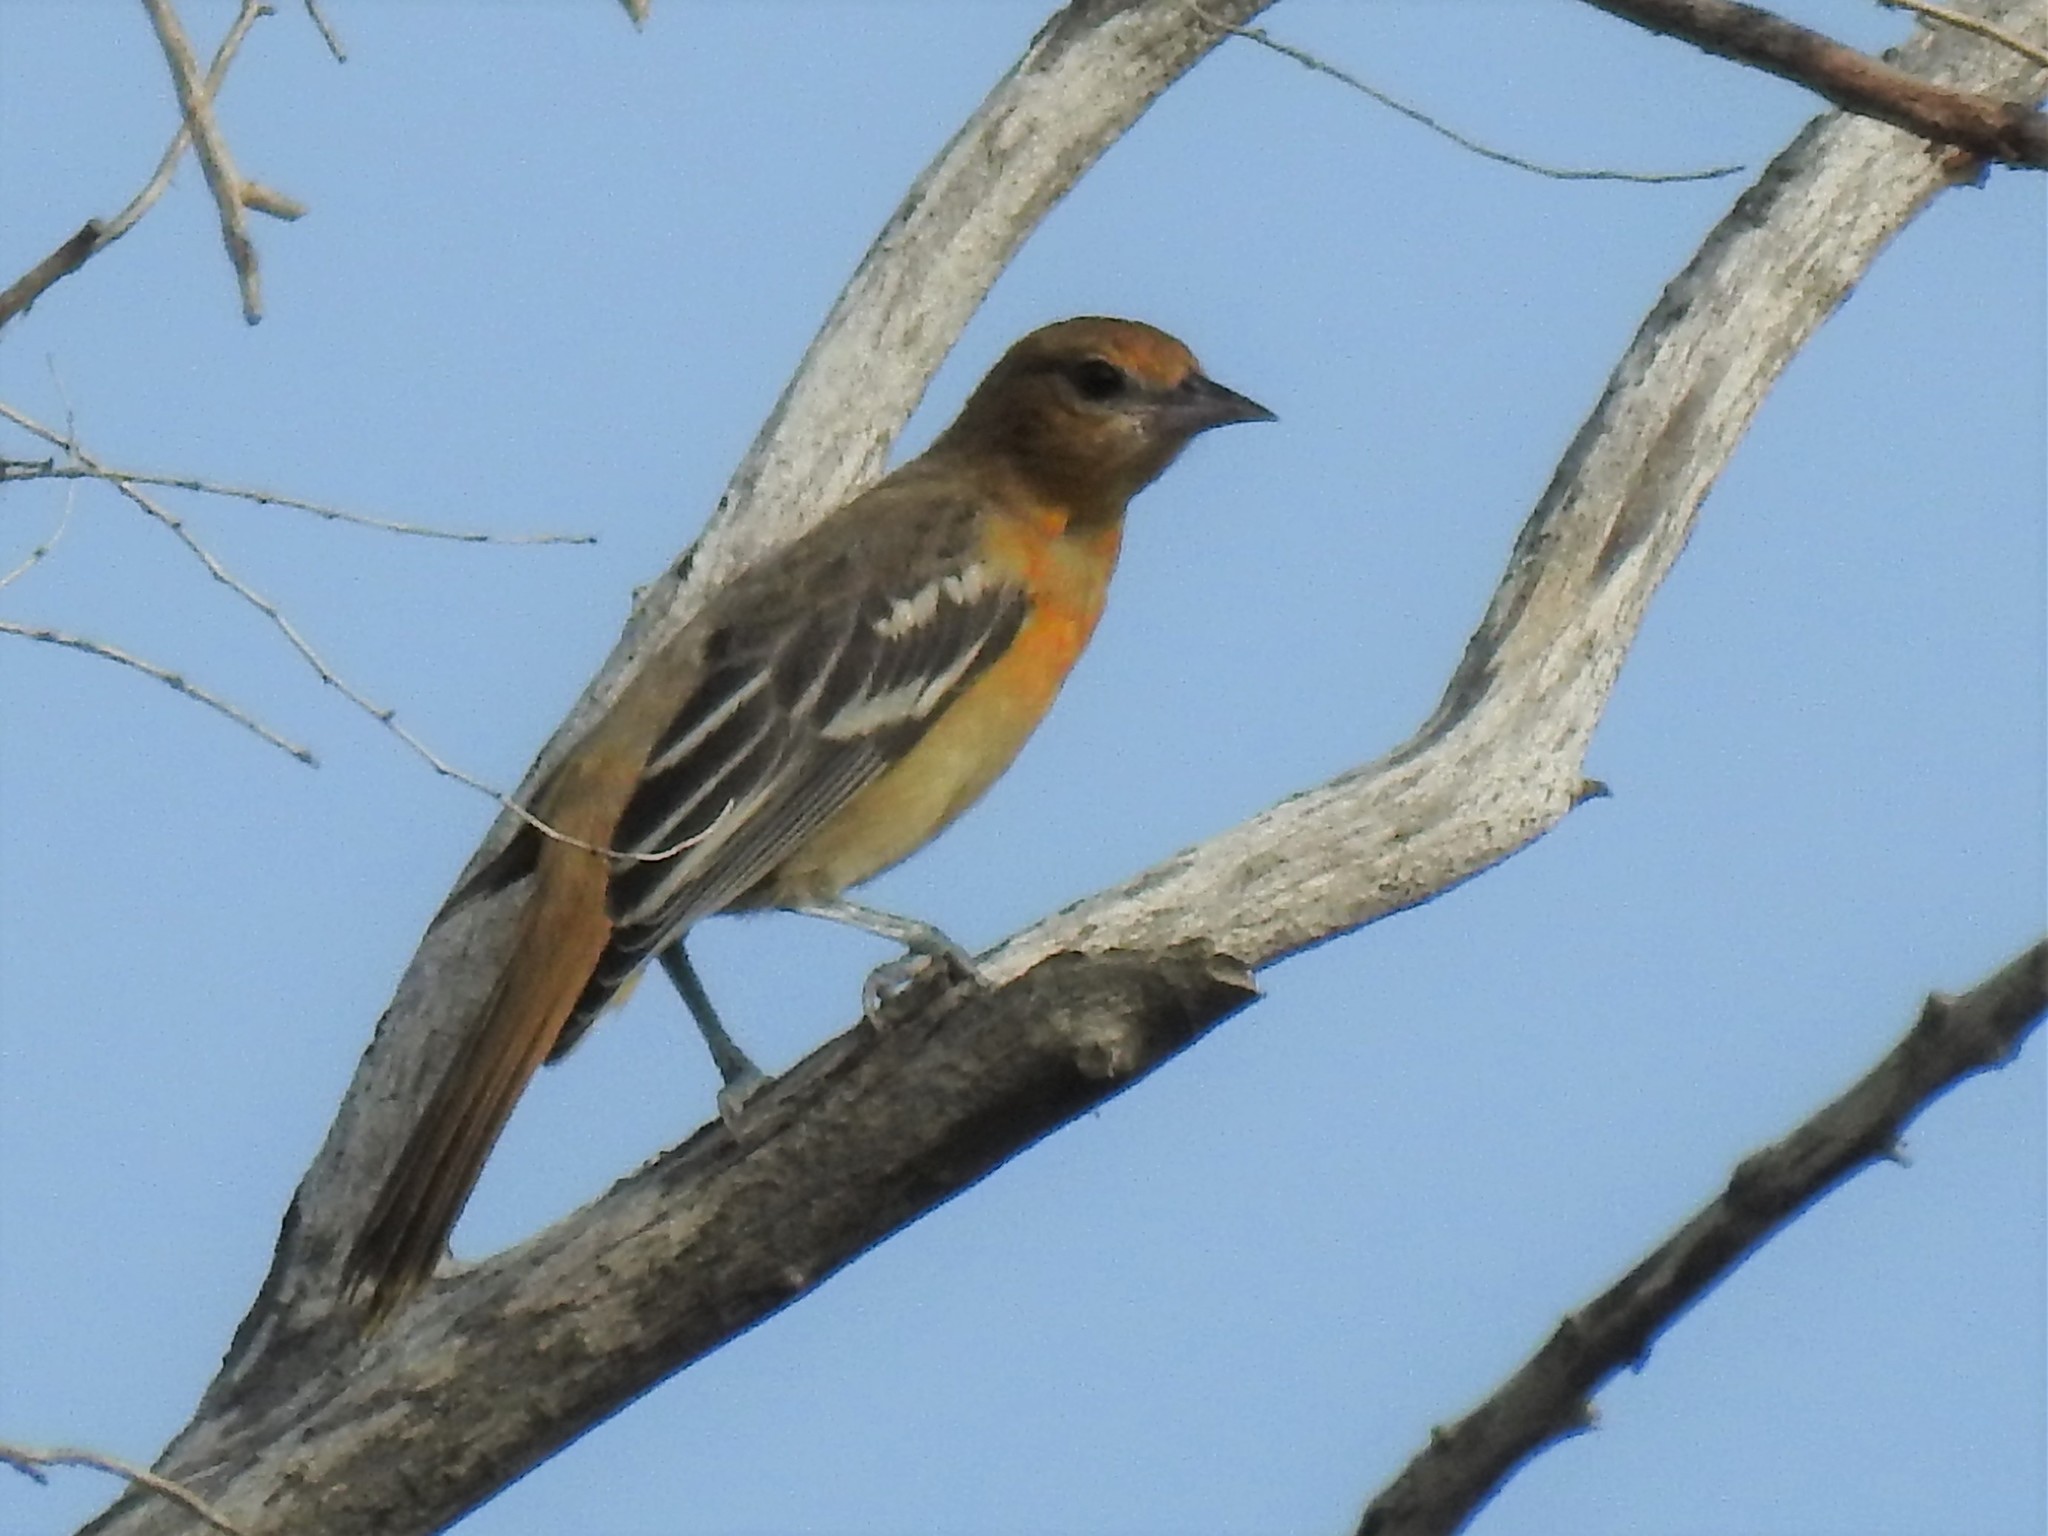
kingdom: Animalia
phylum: Chordata
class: Aves
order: Passeriformes
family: Icteridae
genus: Icterus
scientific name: Icterus galbula
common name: Baltimore oriole
